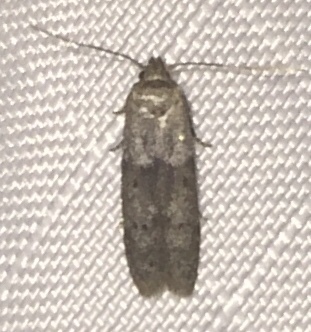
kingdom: Animalia
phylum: Arthropoda
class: Insecta
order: Lepidoptera
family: Blastobasidae
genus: Blastobasis
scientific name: Blastobasis glandulella
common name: Acorn moth
